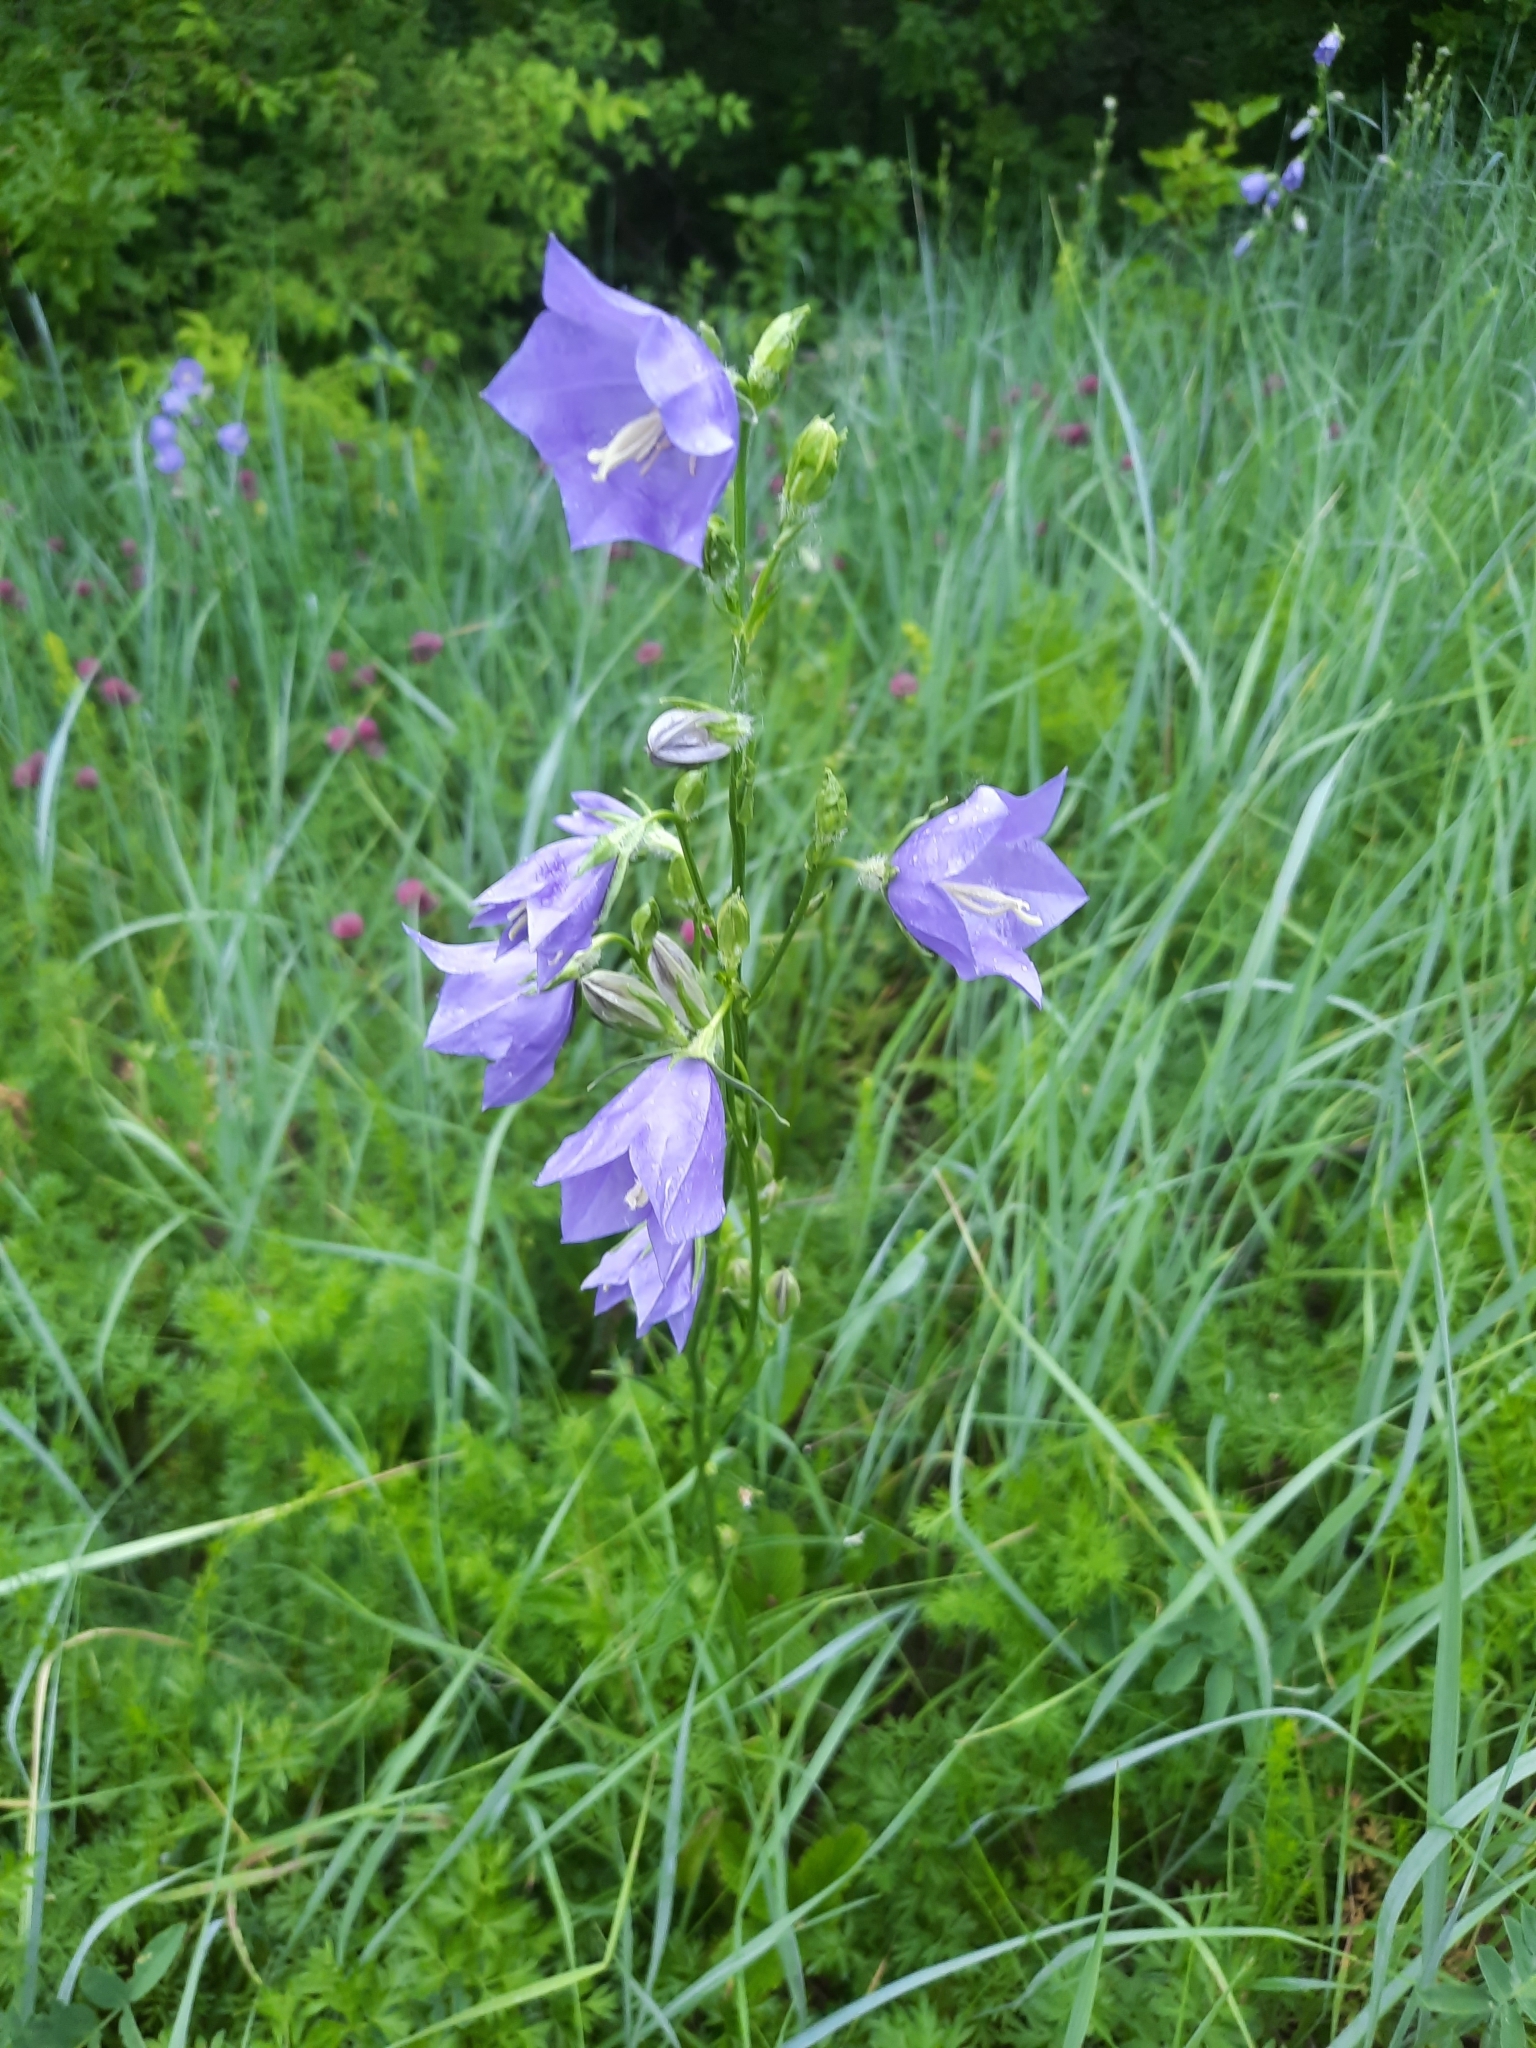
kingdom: Plantae
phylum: Tracheophyta
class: Magnoliopsida
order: Asterales
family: Campanulaceae
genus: Campanula
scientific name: Campanula persicifolia
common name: Peach-leaved bellflower
